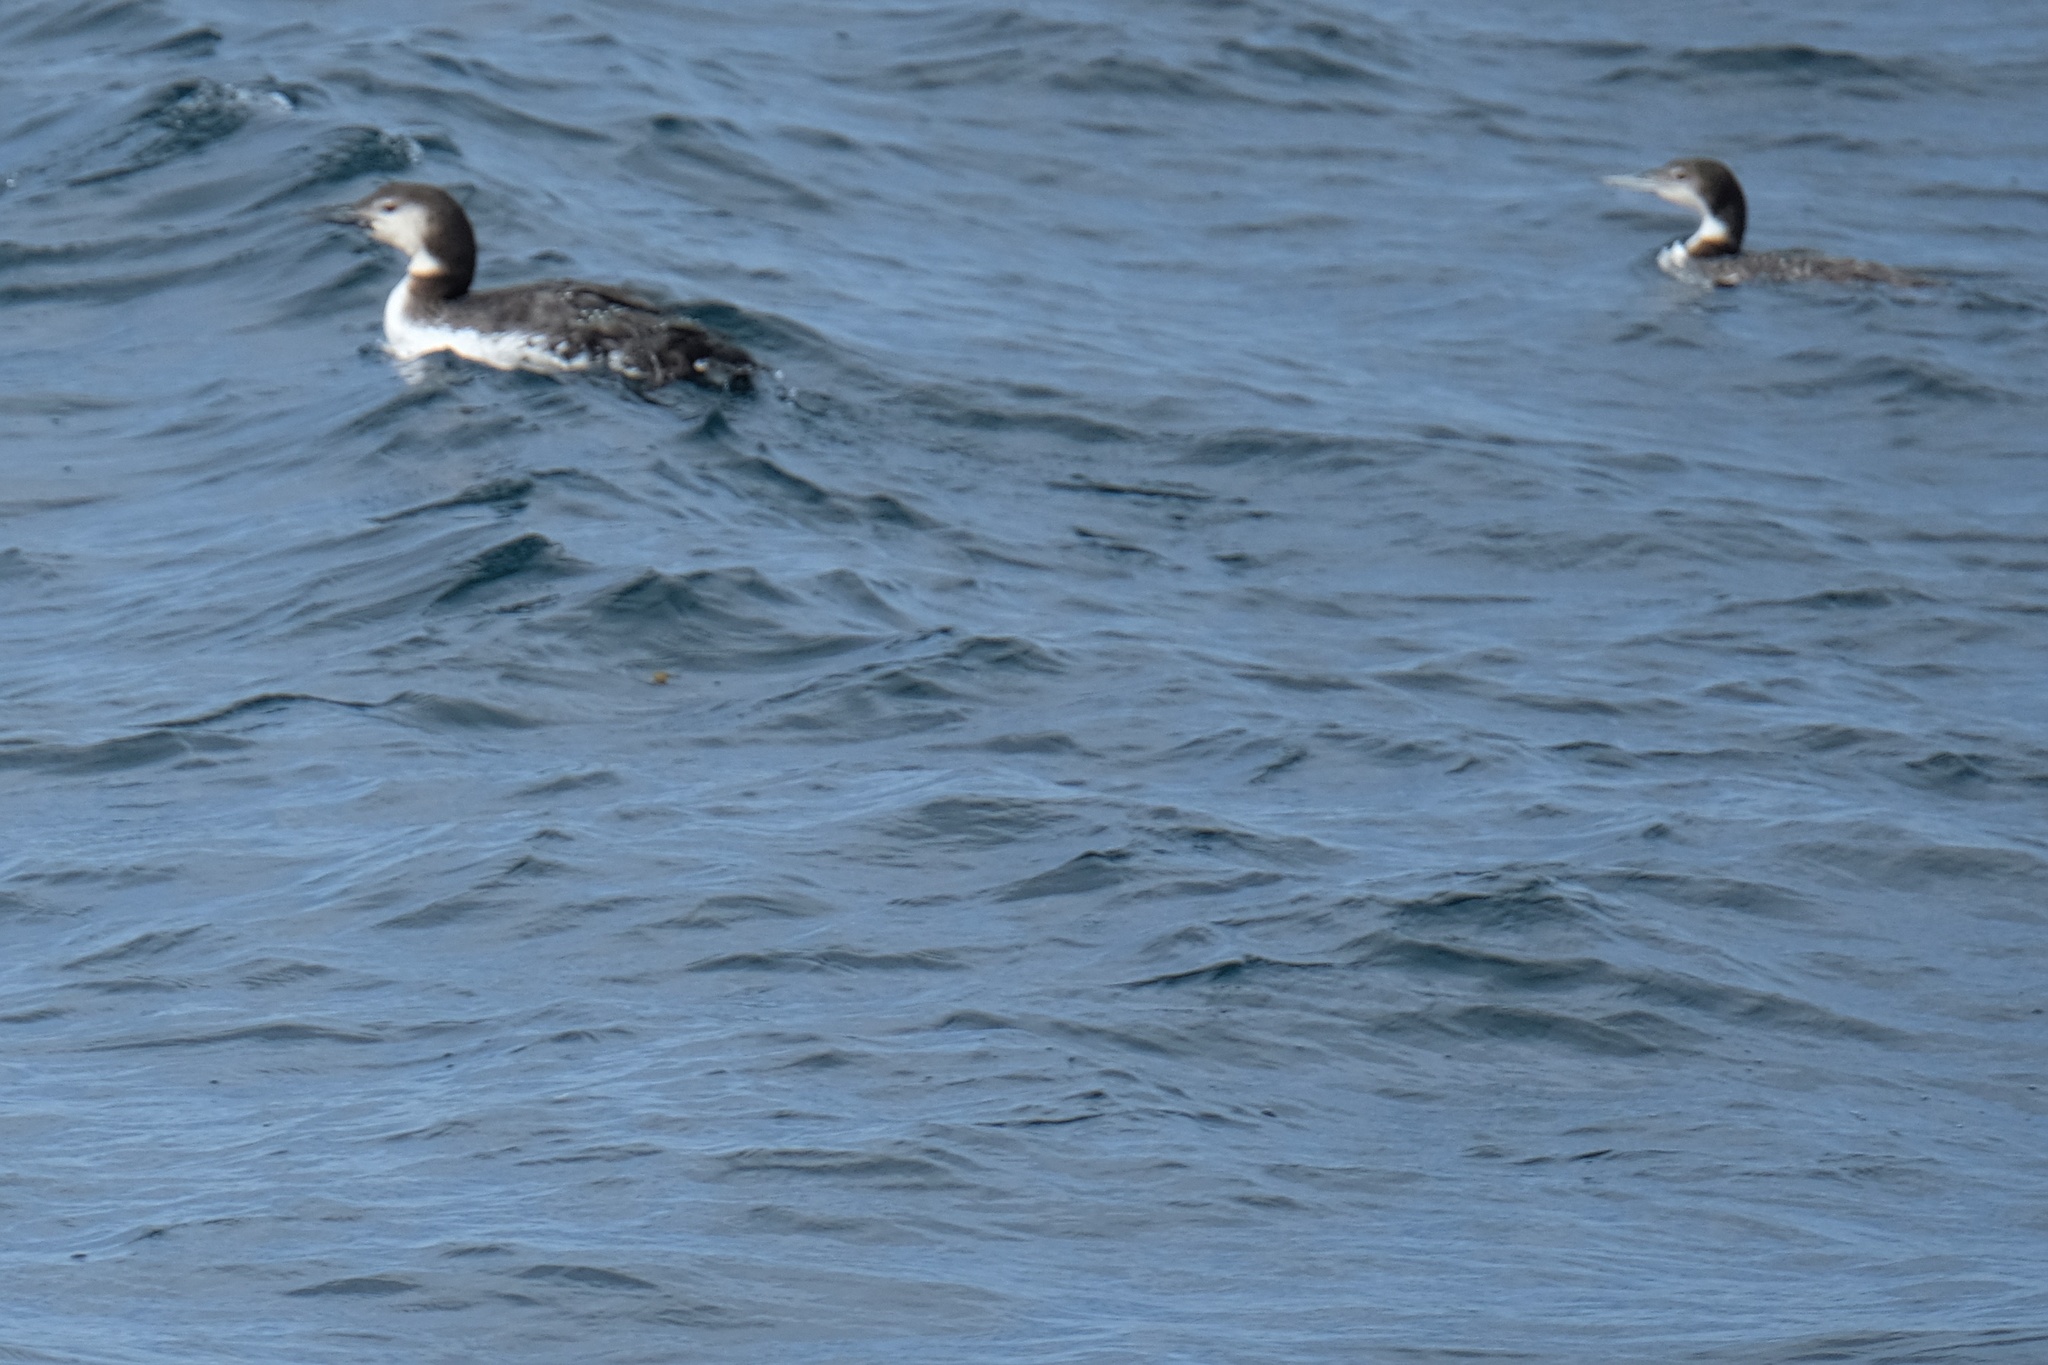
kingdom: Animalia
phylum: Chordata
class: Aves
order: Gaviiformes
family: Gaviidae
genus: Gavia
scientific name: Gavia immer
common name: Common loon
